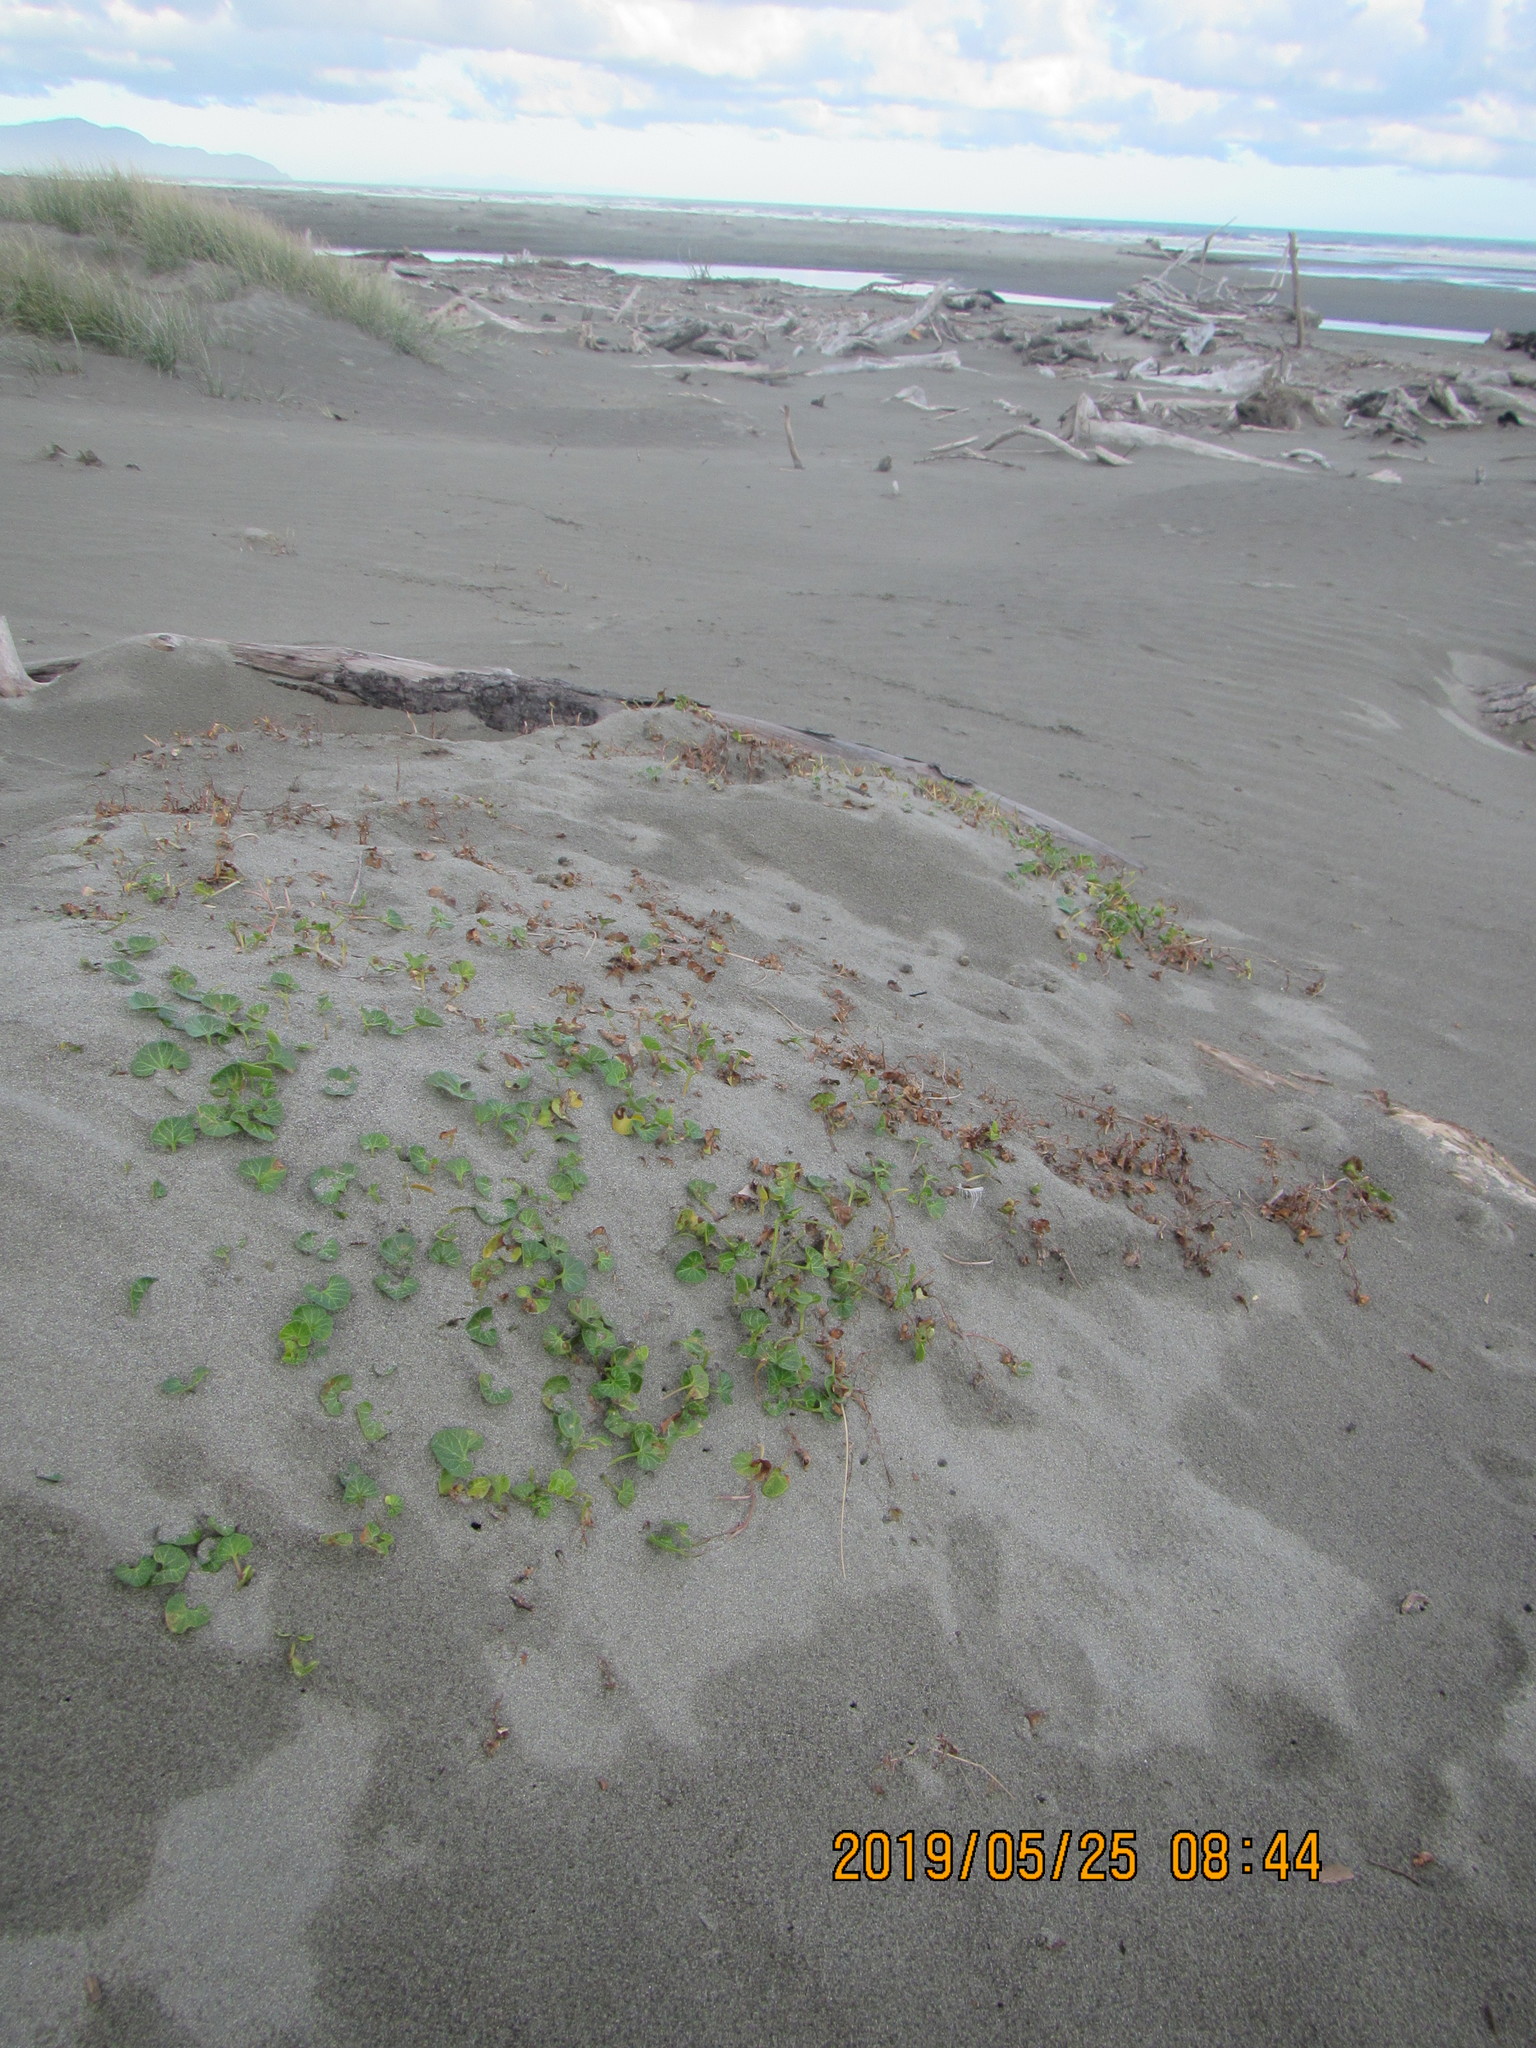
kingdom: Plantae
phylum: Tracheophyta
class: Magnoliopsida
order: Solanales
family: Convolvulaceae
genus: Calystegia
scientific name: Calystegia soldanella
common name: Sea bindweed
